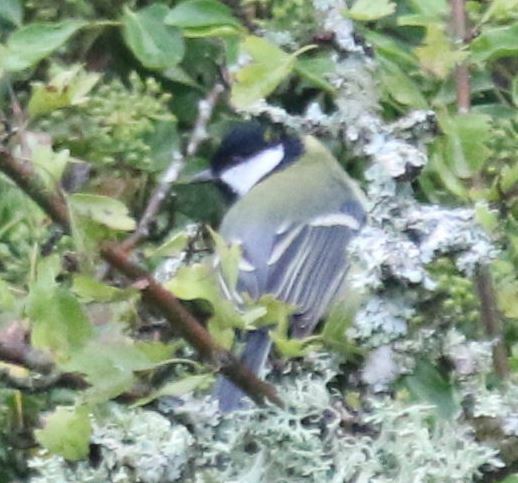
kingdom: Animalia
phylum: Chordata
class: Aves
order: Passeriformes
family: Paridae
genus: Parus
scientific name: Parus major
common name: Great tit
